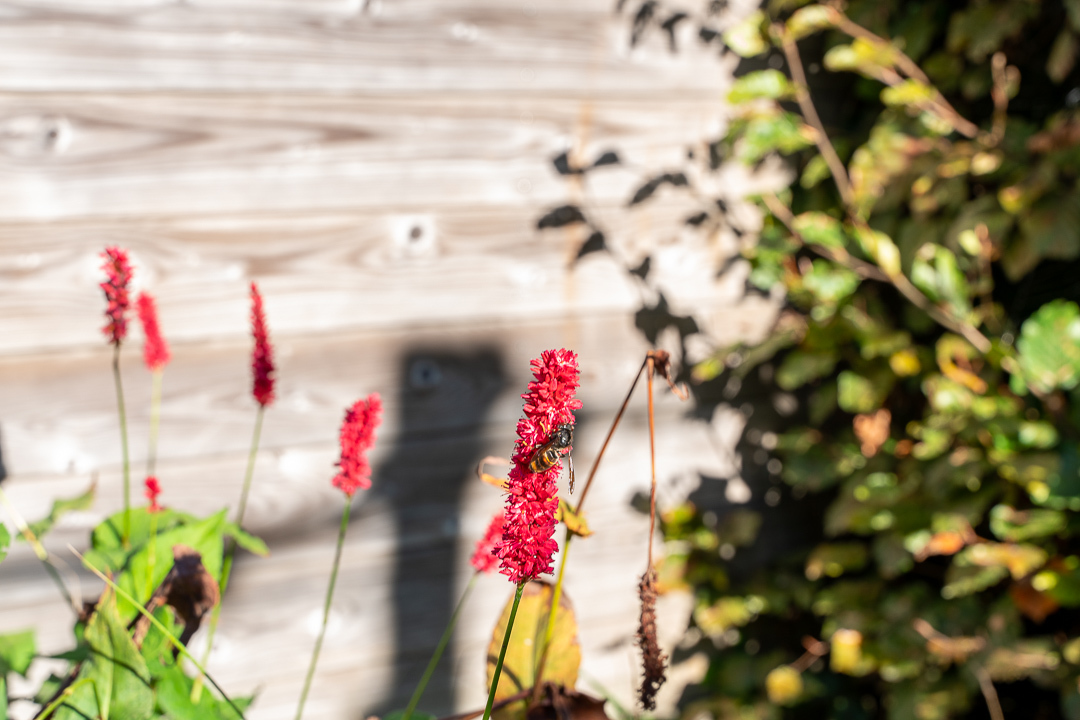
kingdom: Animalia
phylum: Arthropoda
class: Insecta
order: Hymenoptera
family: Vespidae
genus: Vespa
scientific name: Vespa velutina
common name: Asian hornet
